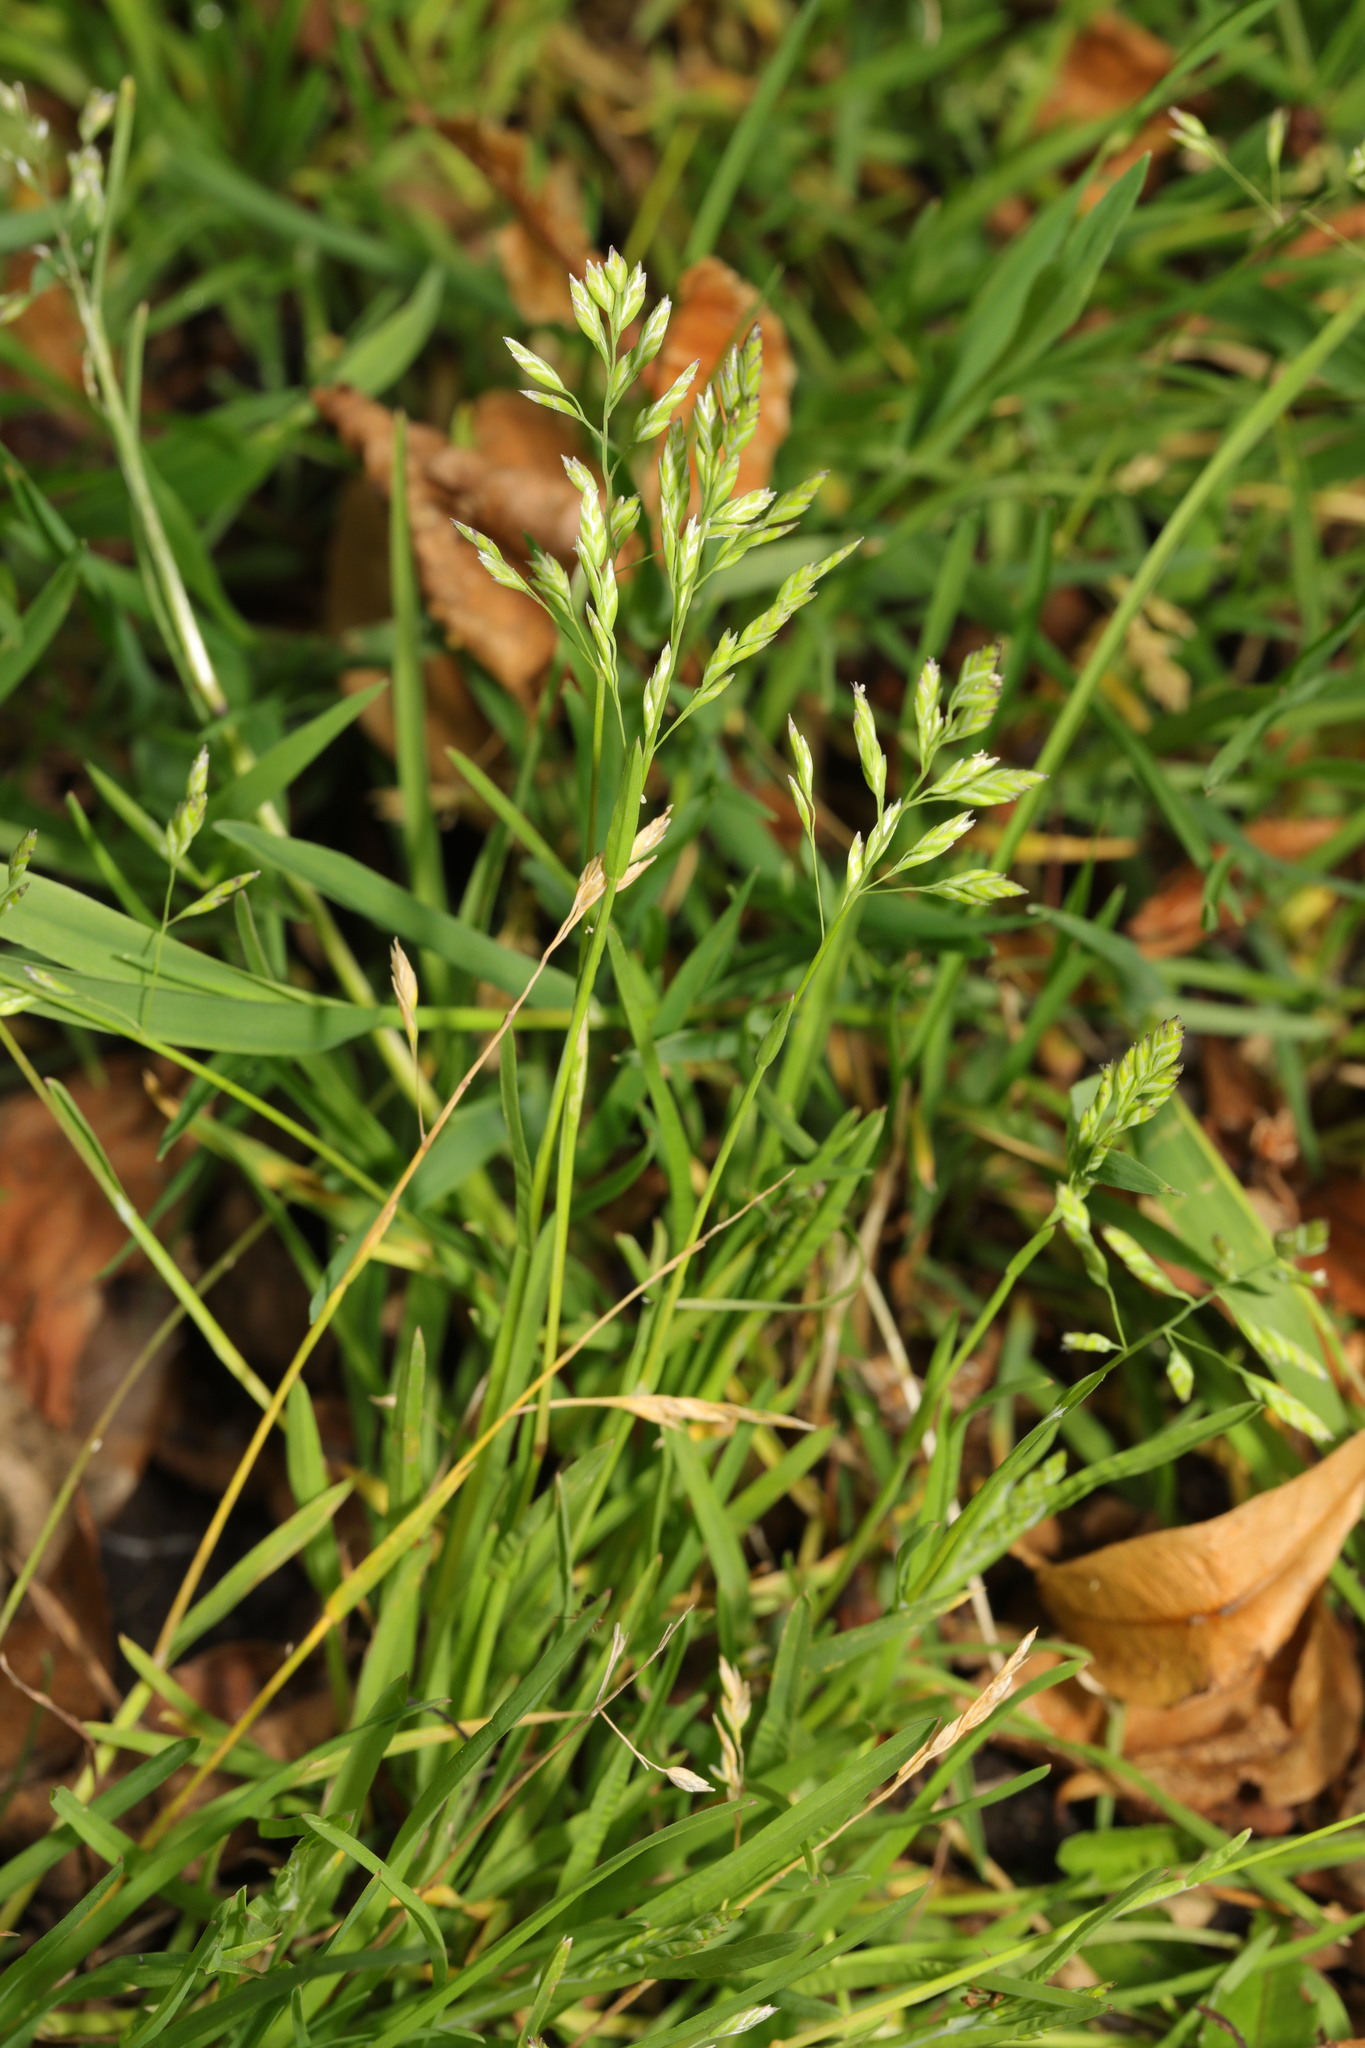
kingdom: Plantae
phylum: Tracheophyta
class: Liliopsida
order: Poales
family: Poaceae
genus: Poa
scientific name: Poa annua
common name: Annual bluegrass
